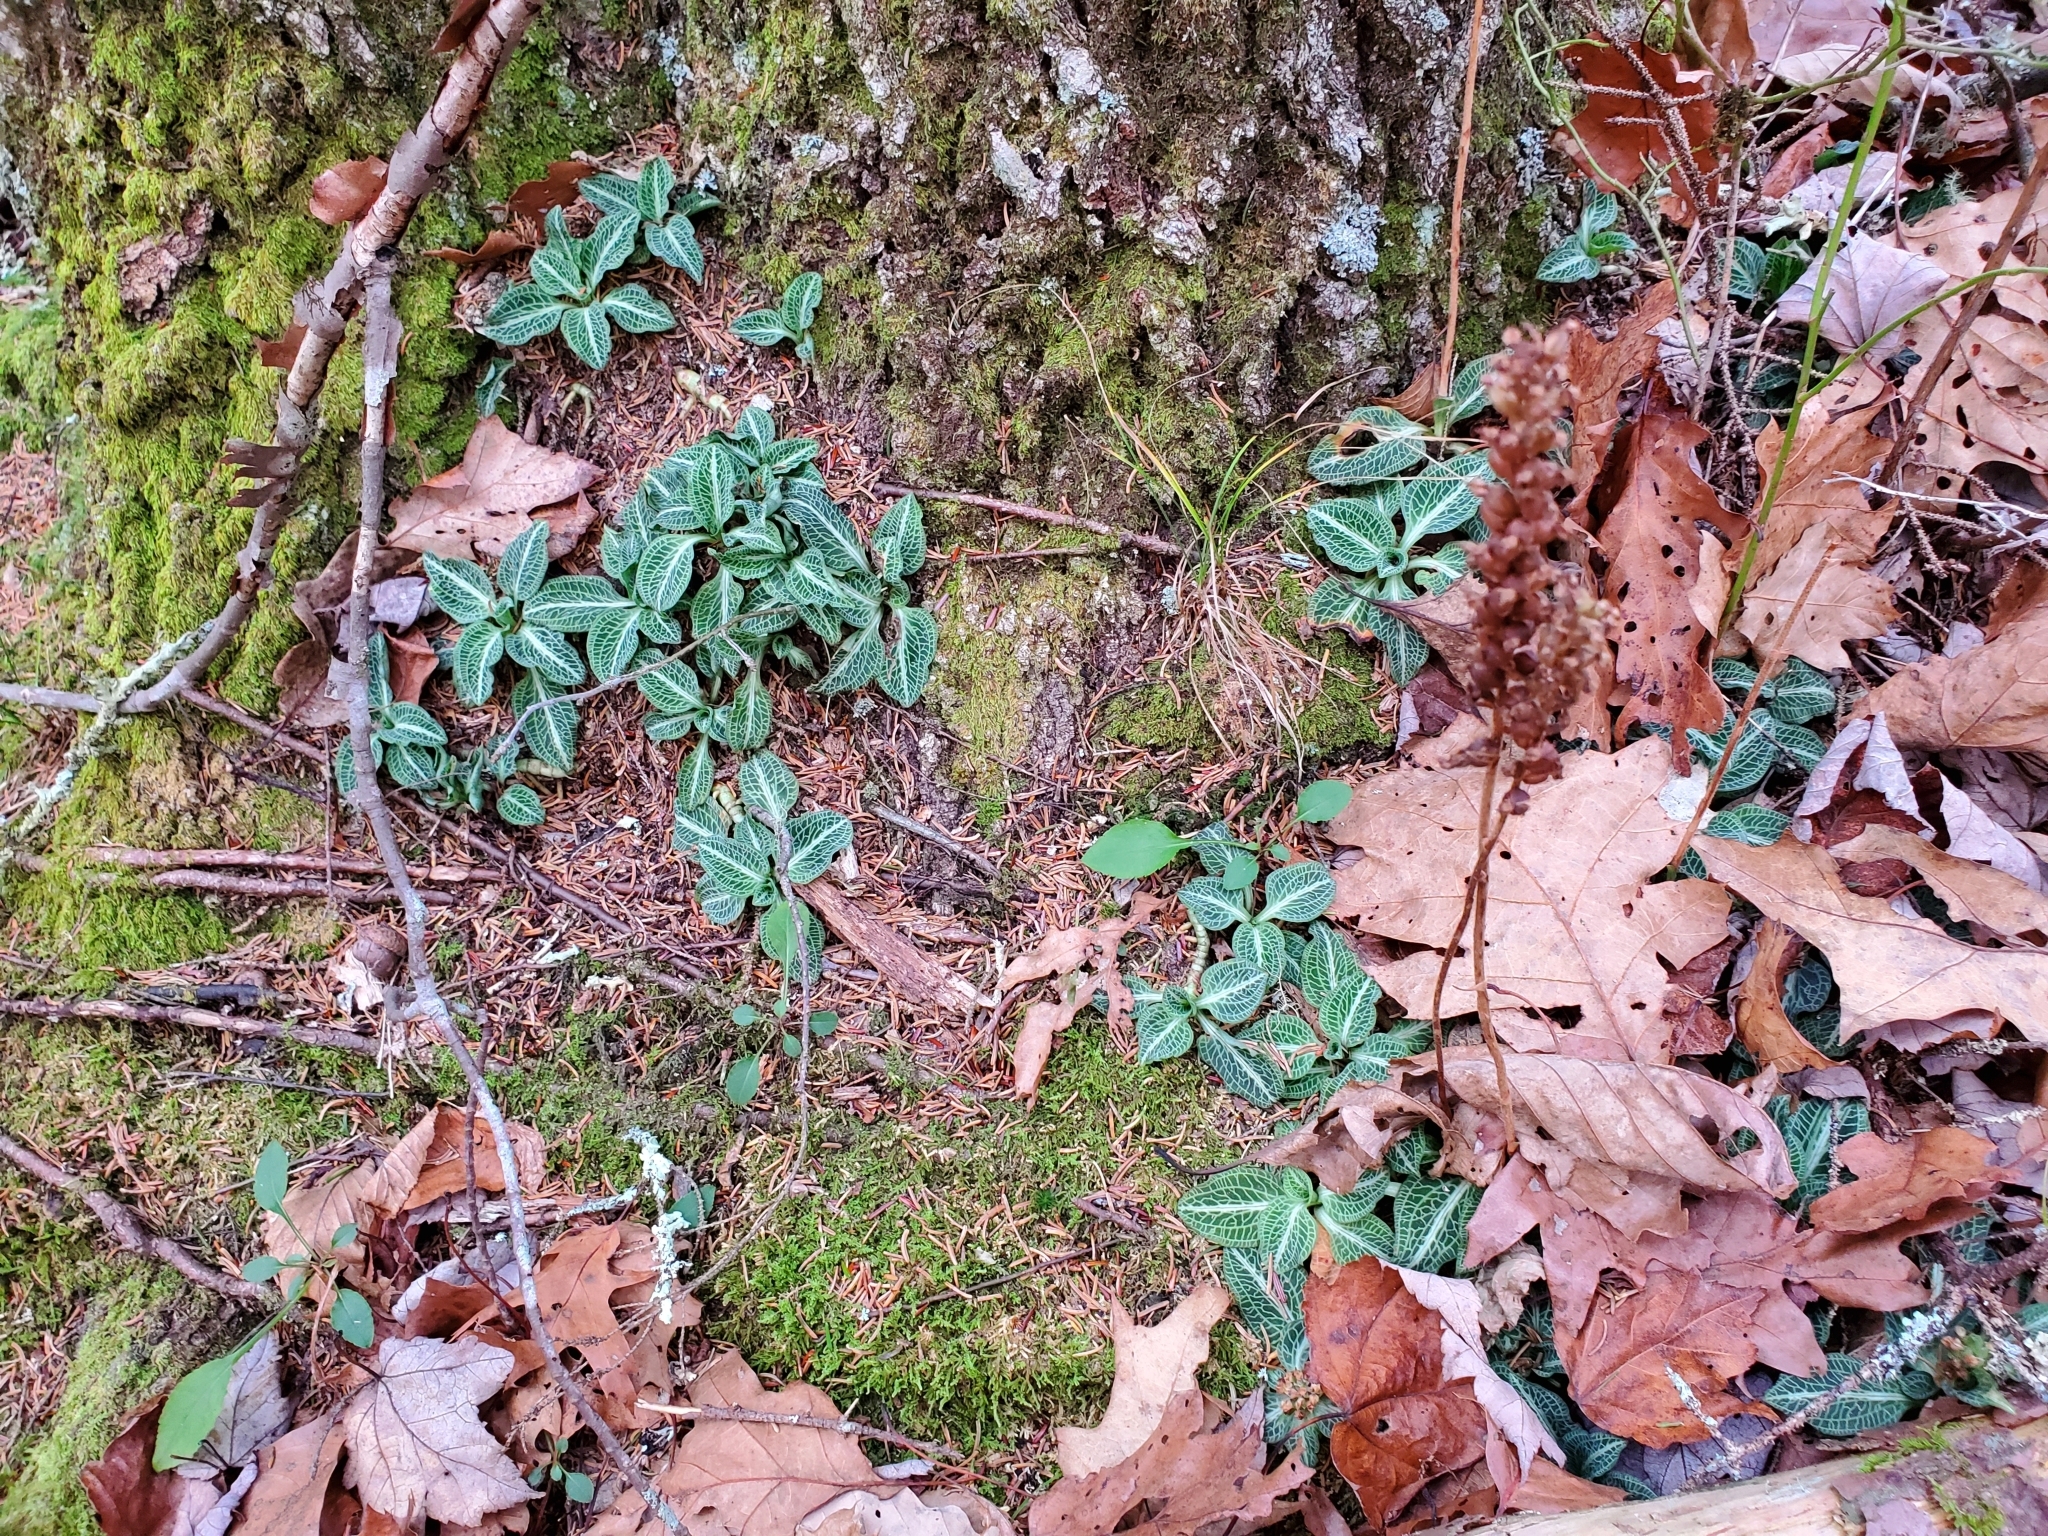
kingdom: Plantae
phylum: Tracheophyta
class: Liliopsida
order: Asparagales
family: Orchidaceae
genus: Goodyera
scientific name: Goodyera pubescens
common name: Downy rattlesnake-plantain
